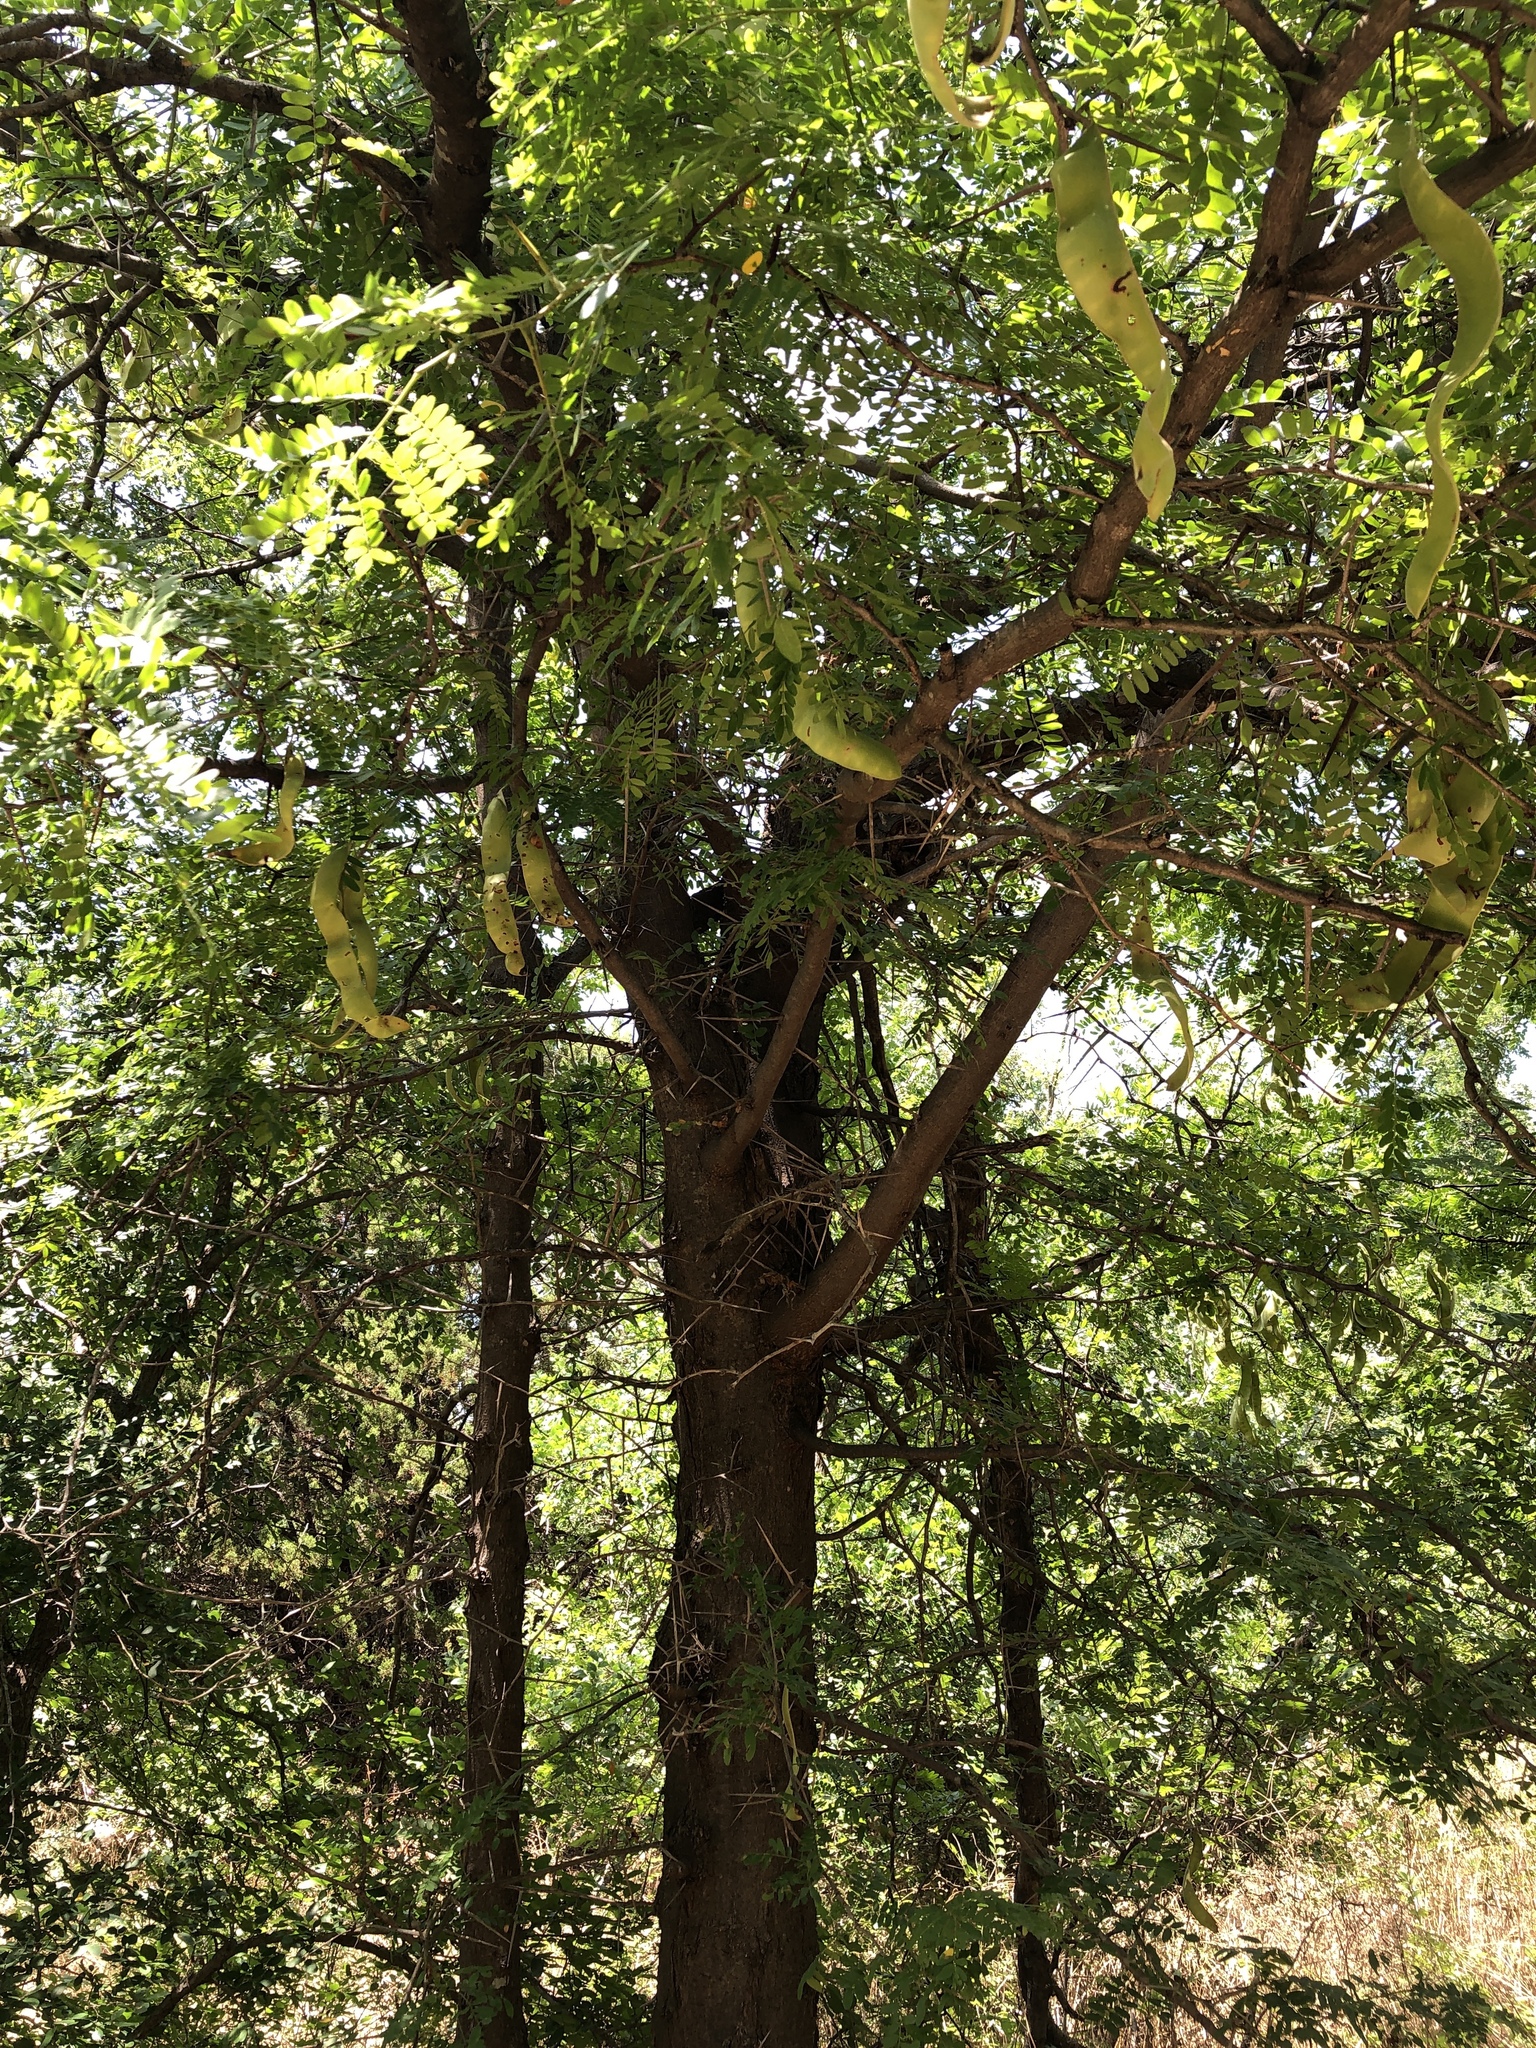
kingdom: Plantae
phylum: Tracheophyta
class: Magnoliopsida
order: Fabales
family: Fabaceae
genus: Gleditsia
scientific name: Gleditsia triacanthos
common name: Common honeylocust
